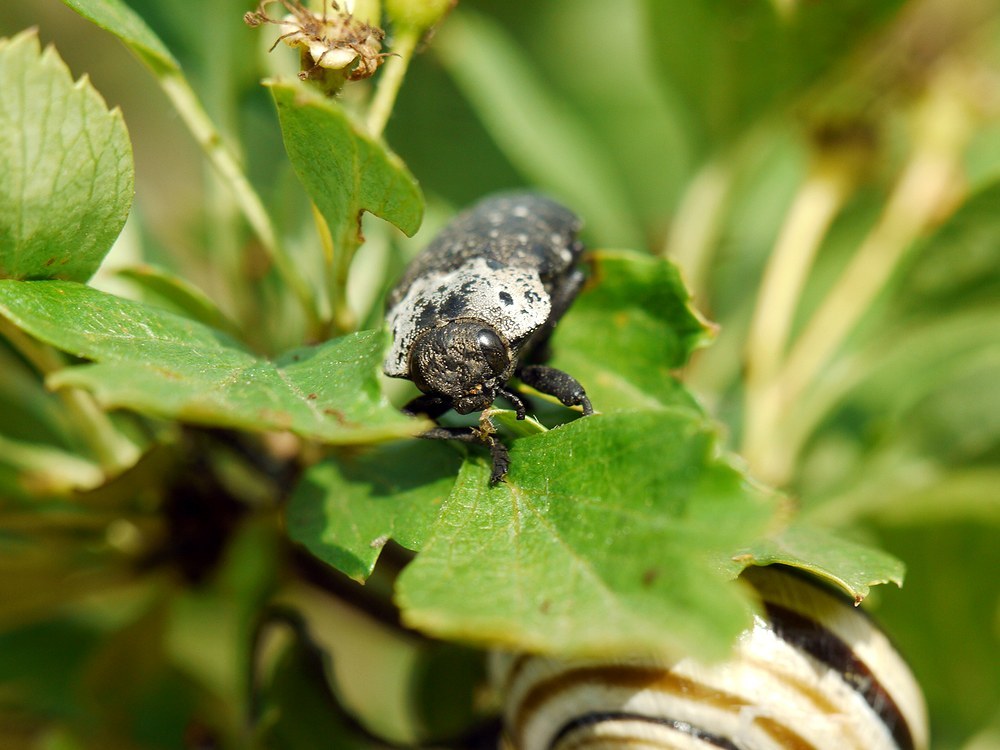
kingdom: Animalia
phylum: Arthropoda
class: Insecta
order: Coleoptera
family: Buprestidae
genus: Capnodis
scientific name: Capnodis tenebrionis
